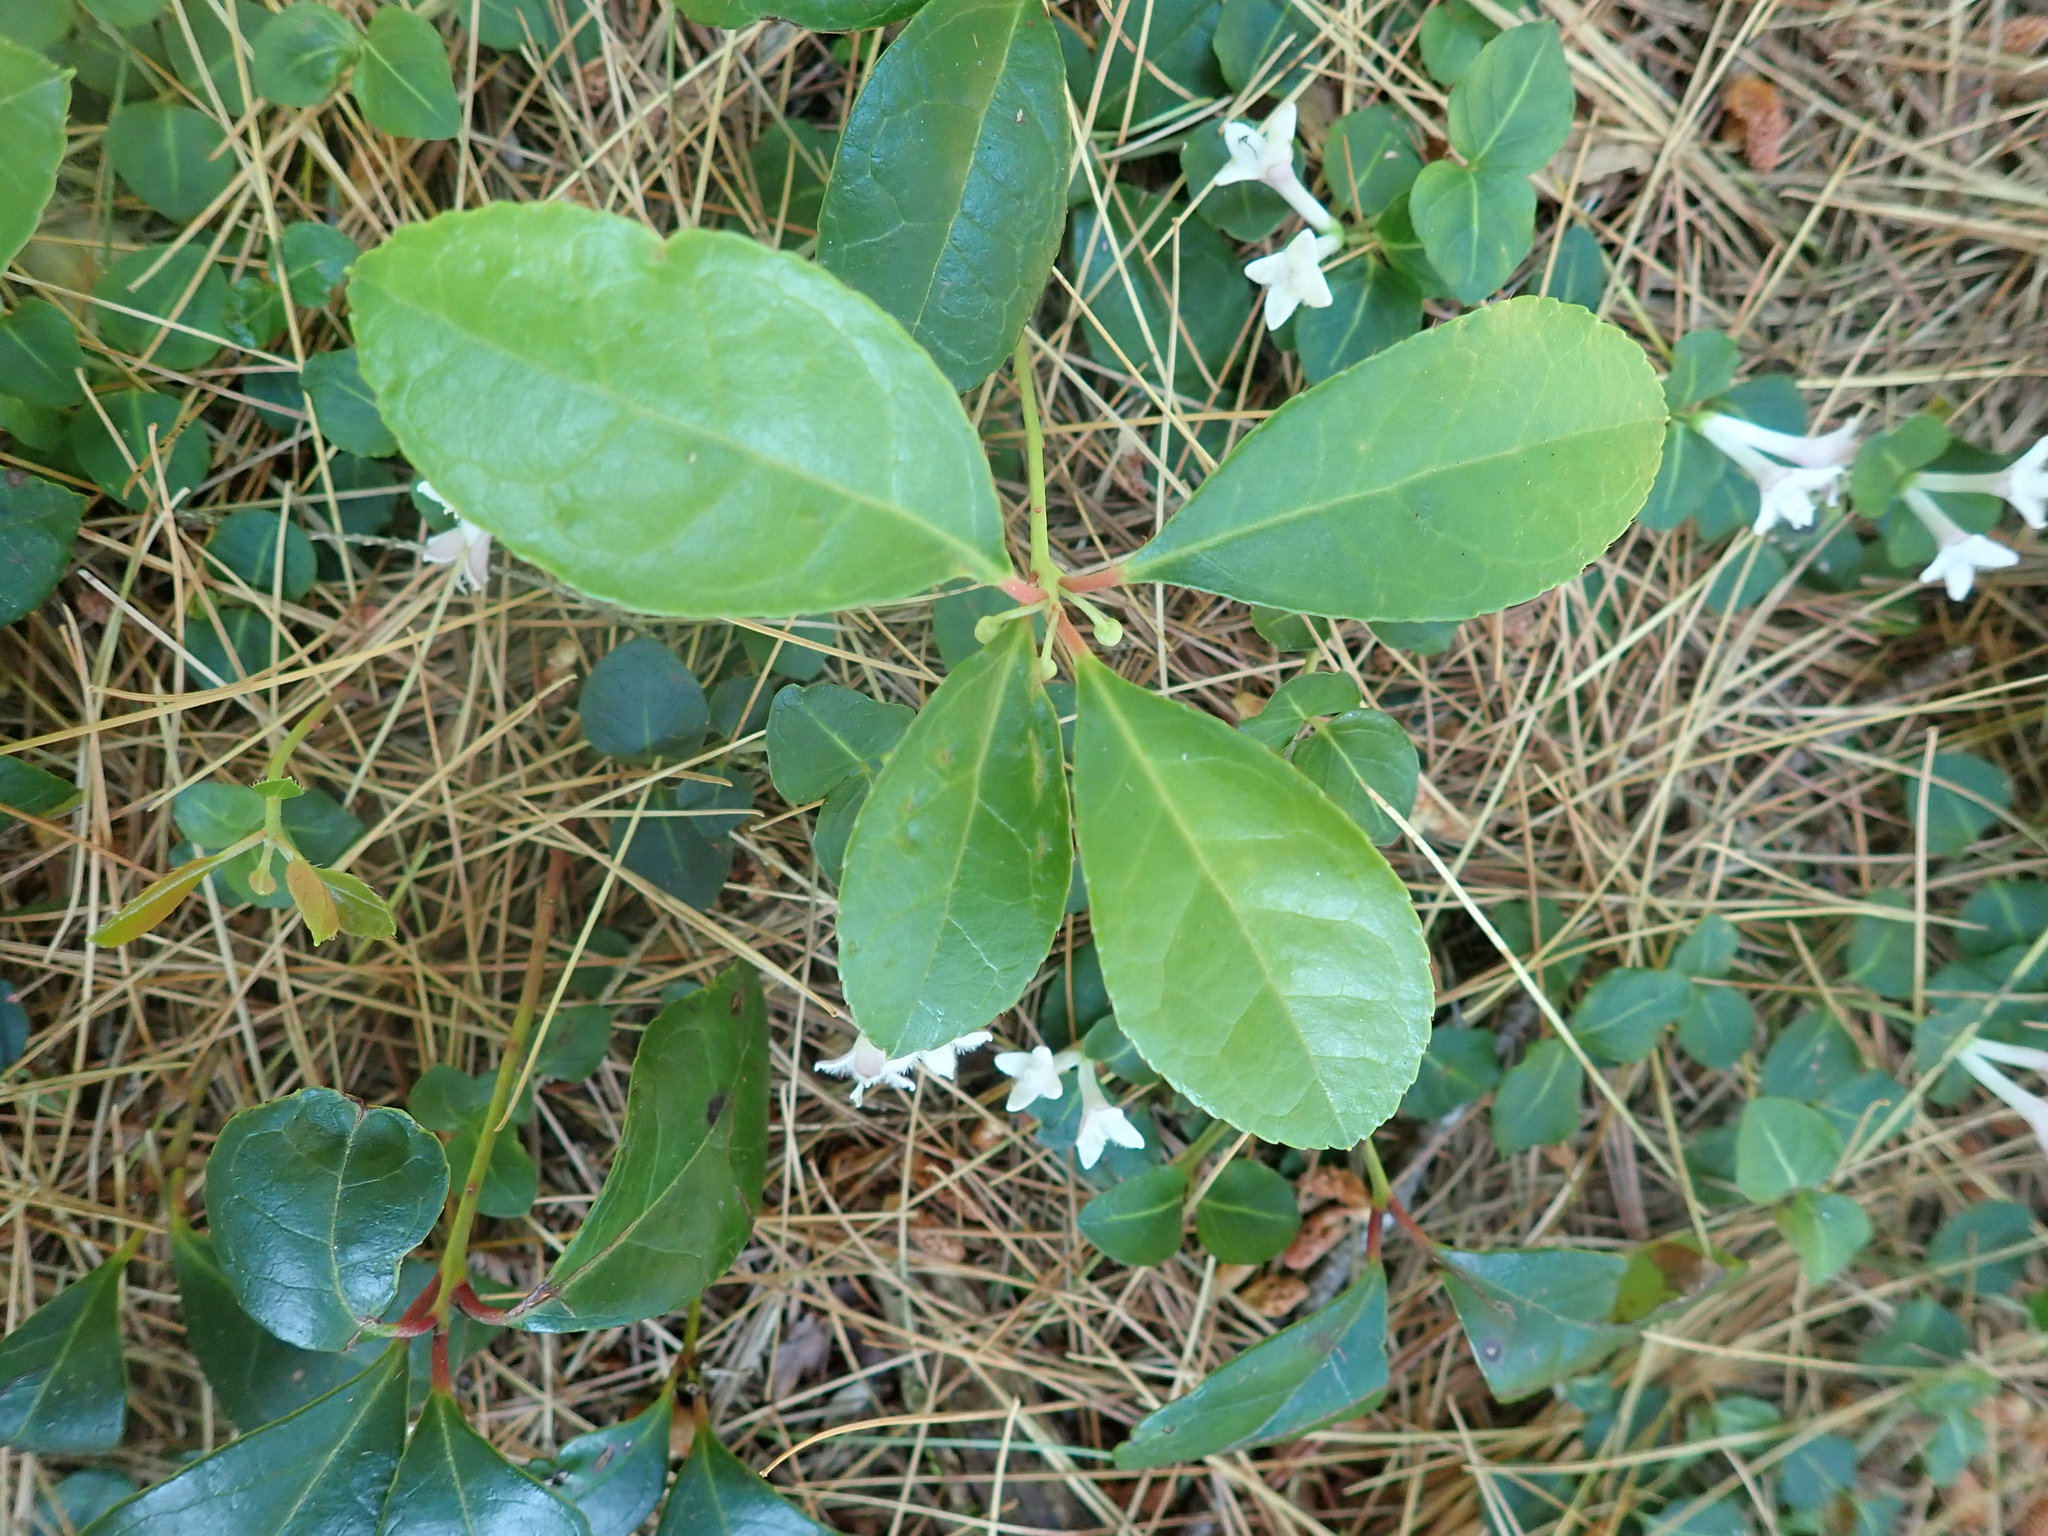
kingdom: Plantae
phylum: Tracheophyta
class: Magnoliopsida
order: Ericales
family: Ericaceae
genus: Gaultheria
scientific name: Gaultheria procumbens
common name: Checkerberry
